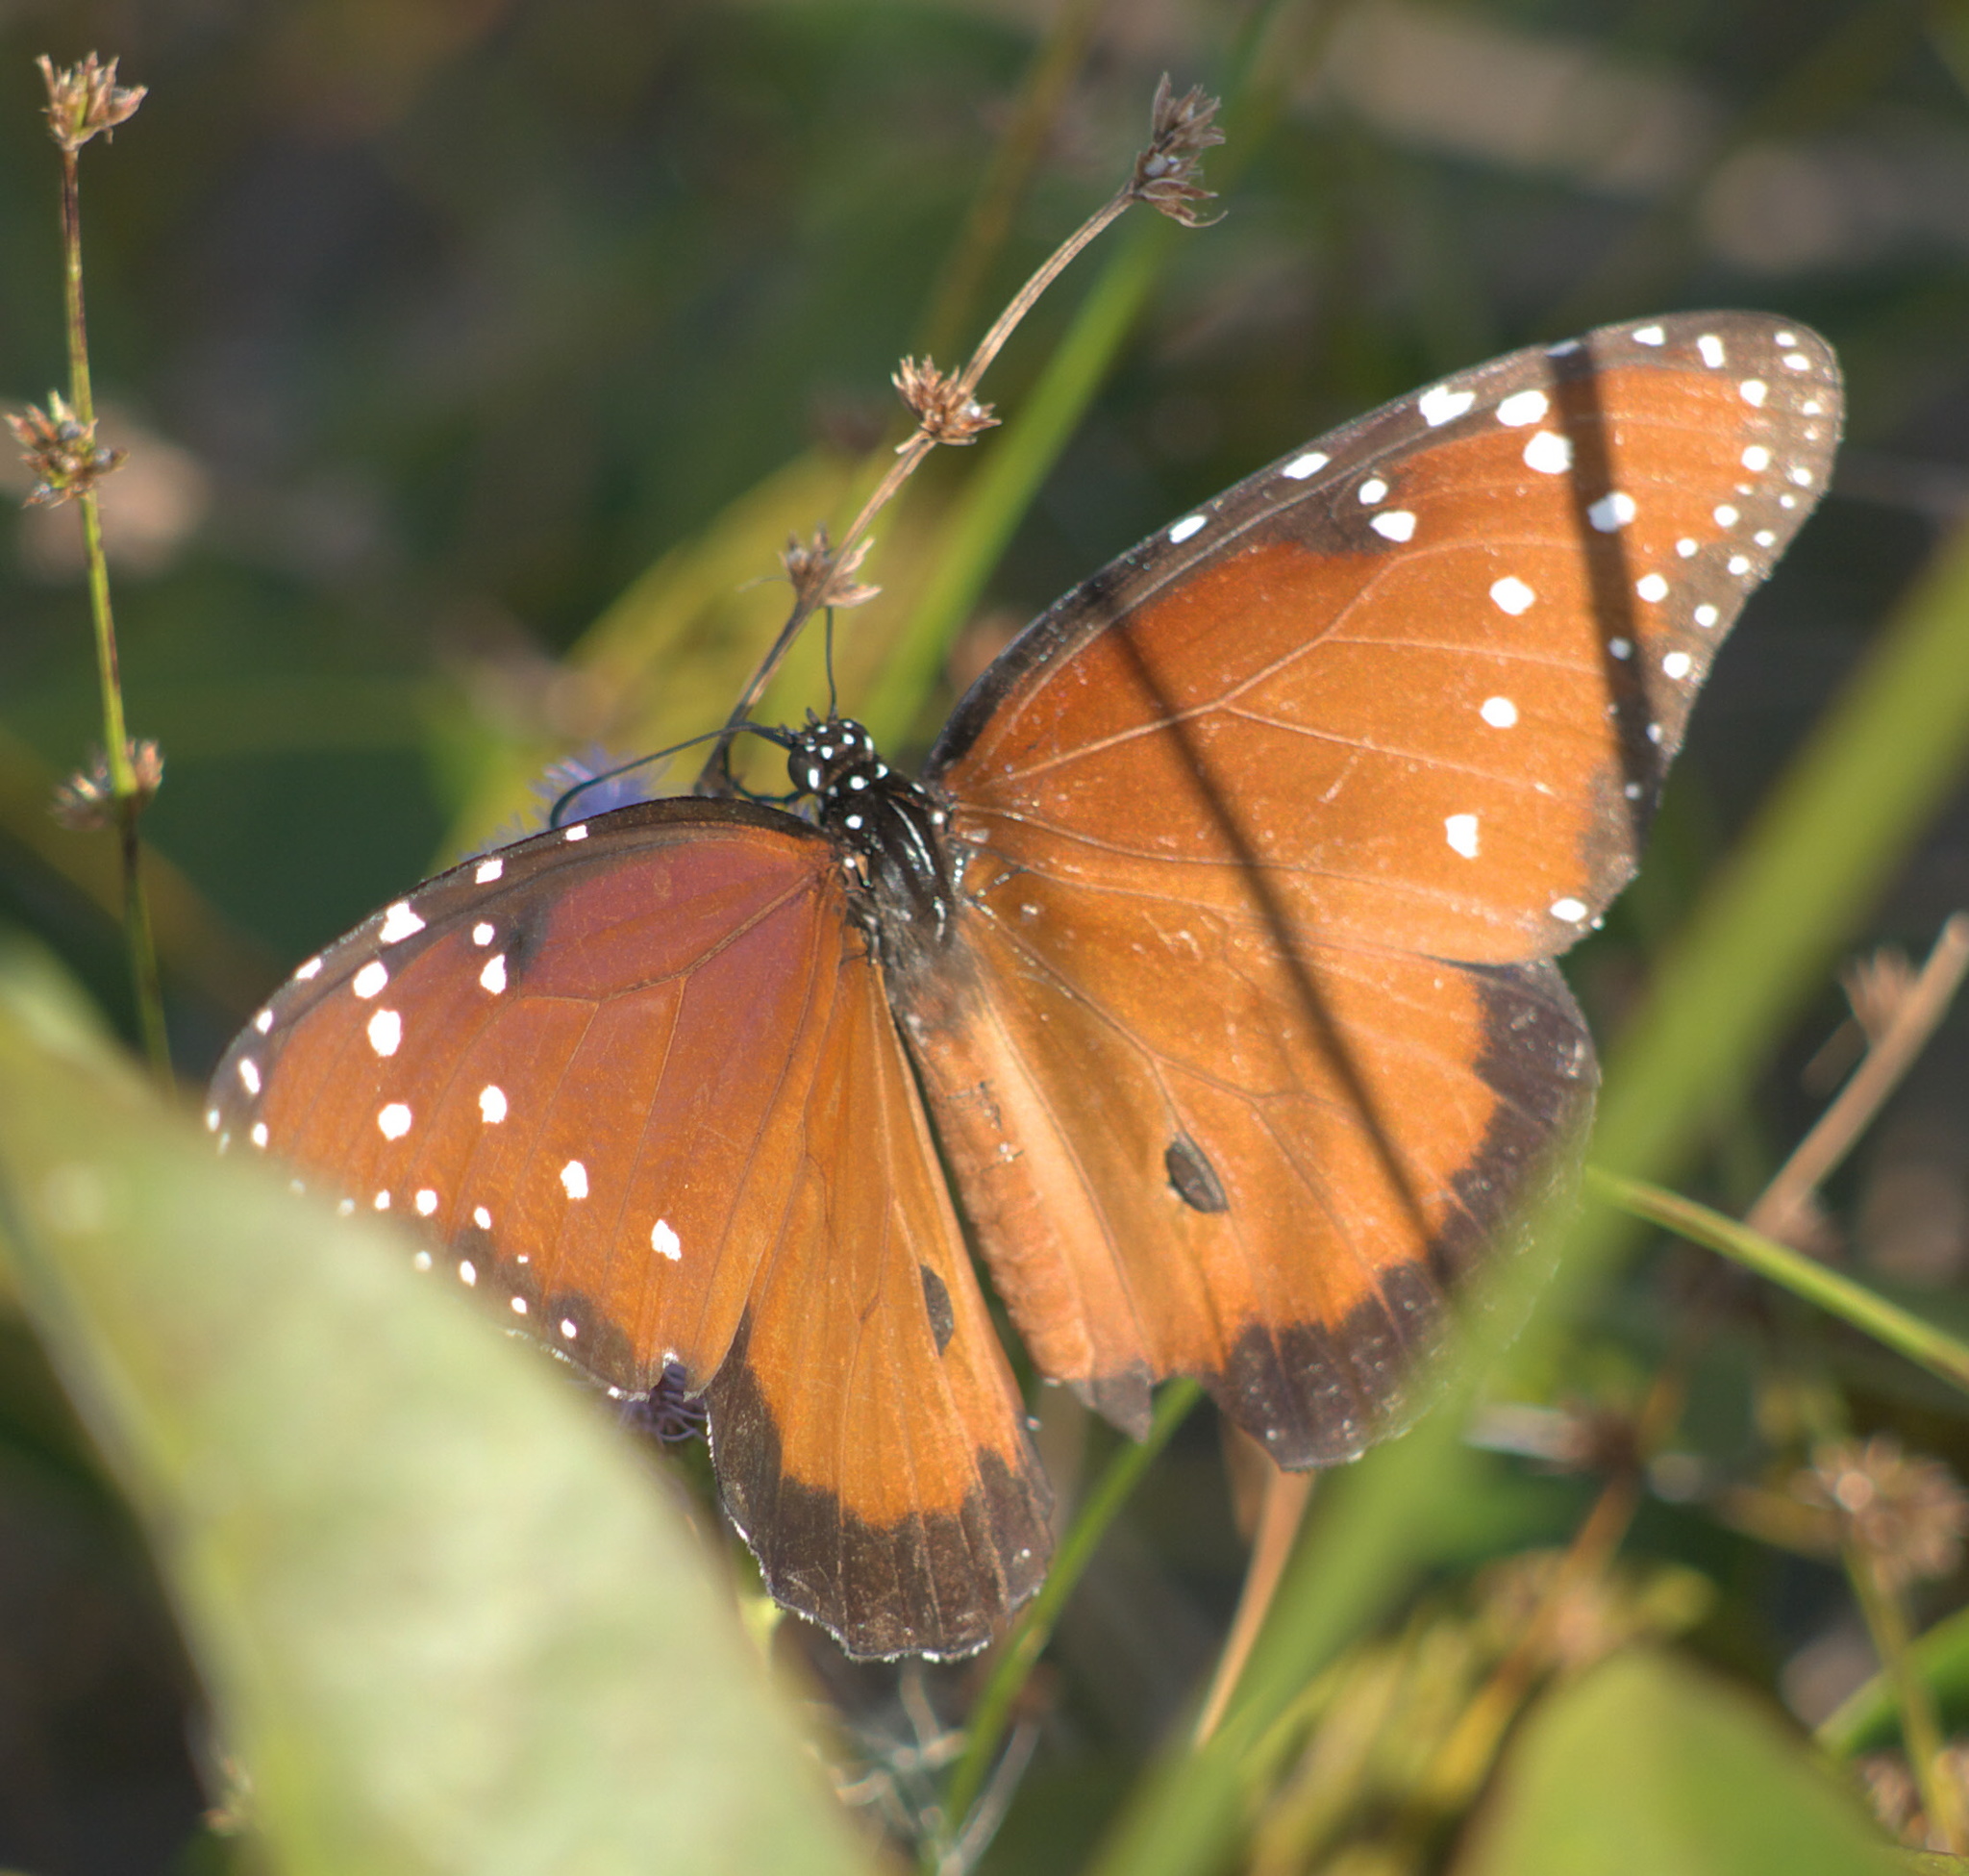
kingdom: Animalia
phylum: Arthropoda
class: Insecta
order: Lepidoptera
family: Nymphalidae
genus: Danaus
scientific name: Danaus gilippus
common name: Queen
